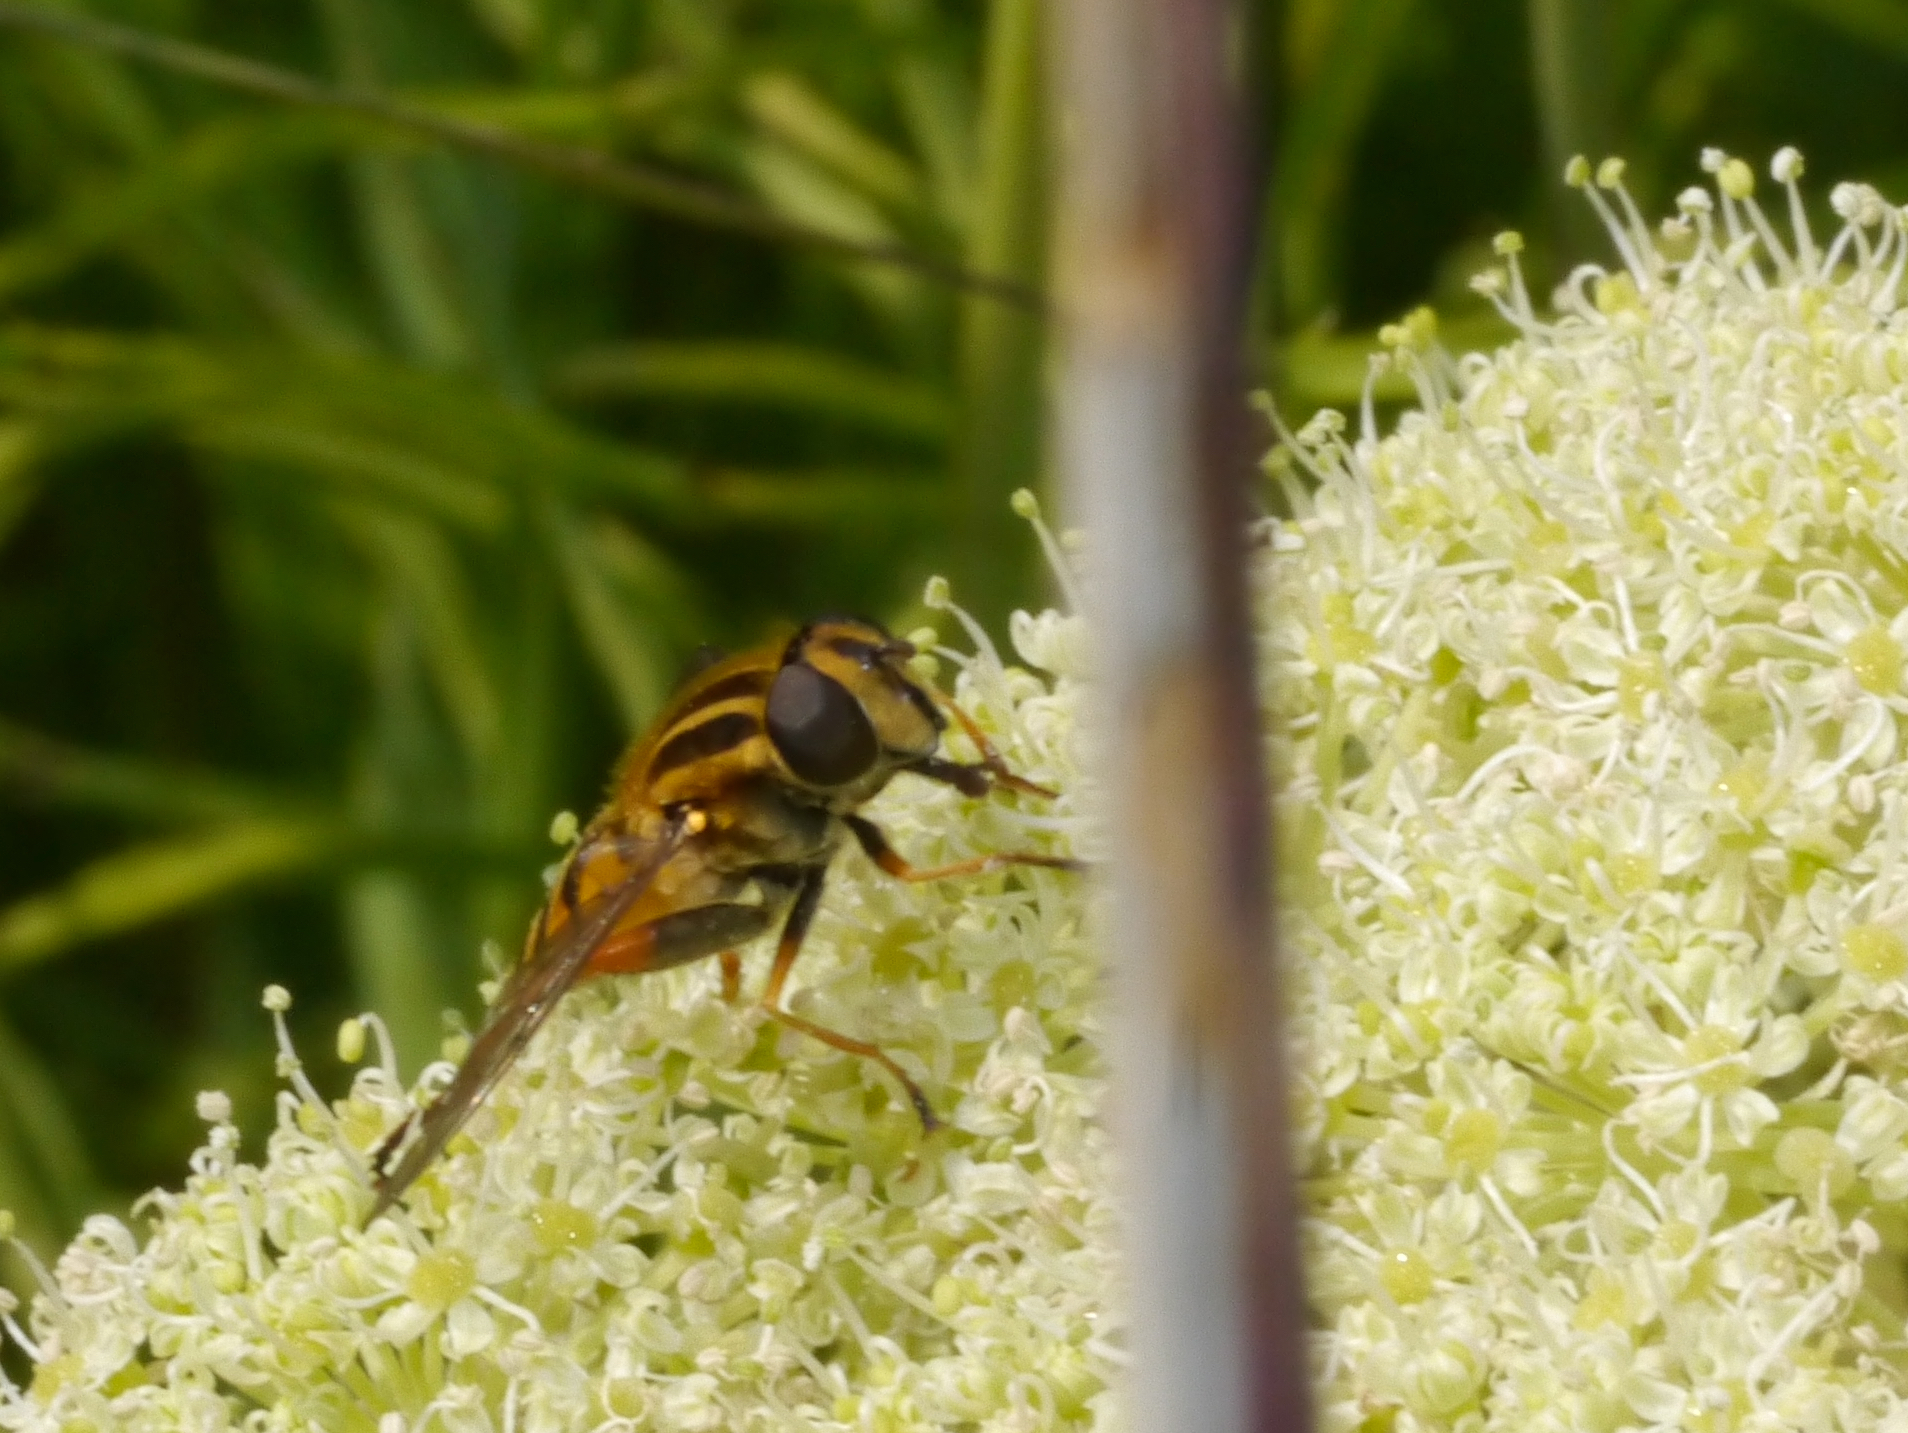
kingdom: Animalia
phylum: Arthropoda
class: Insecta
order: Diptera
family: Syrphidae
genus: Helophilus
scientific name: Helophilus intentus
